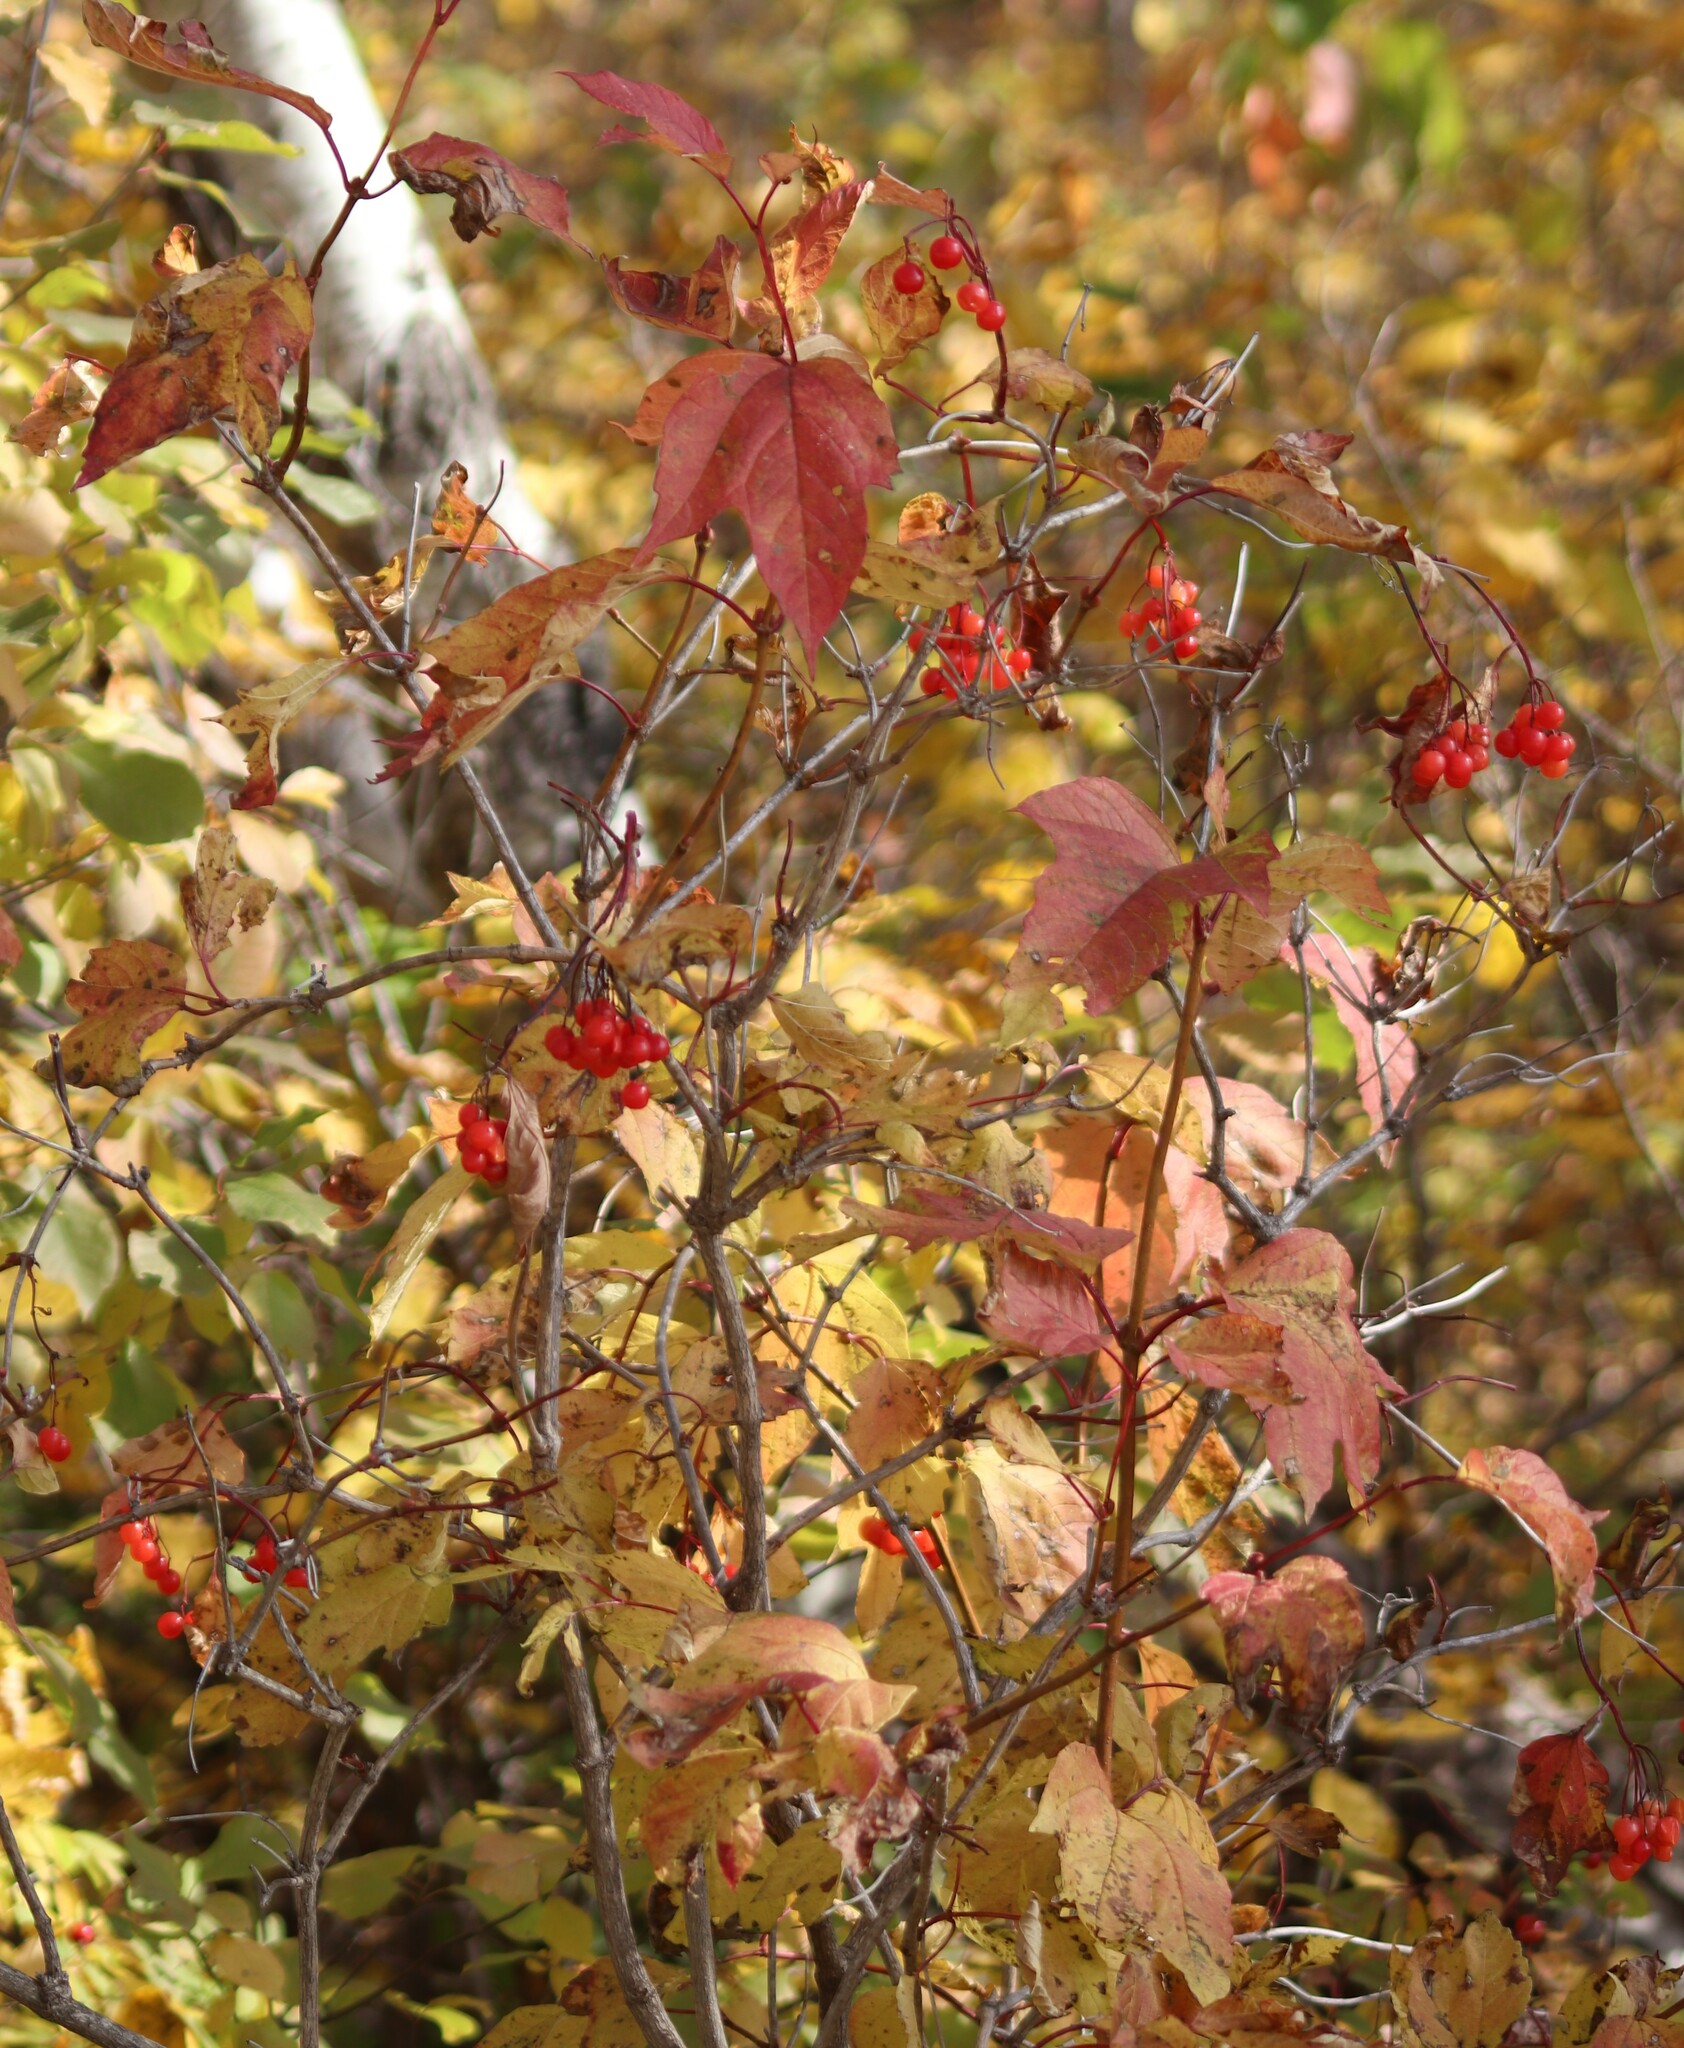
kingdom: Plantae
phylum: Tracheophyta
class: Magnoliopsida
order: Dipsacales
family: Viburnaceae
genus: Viburnum
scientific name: Viburnum opulus
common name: Guelder-rose
